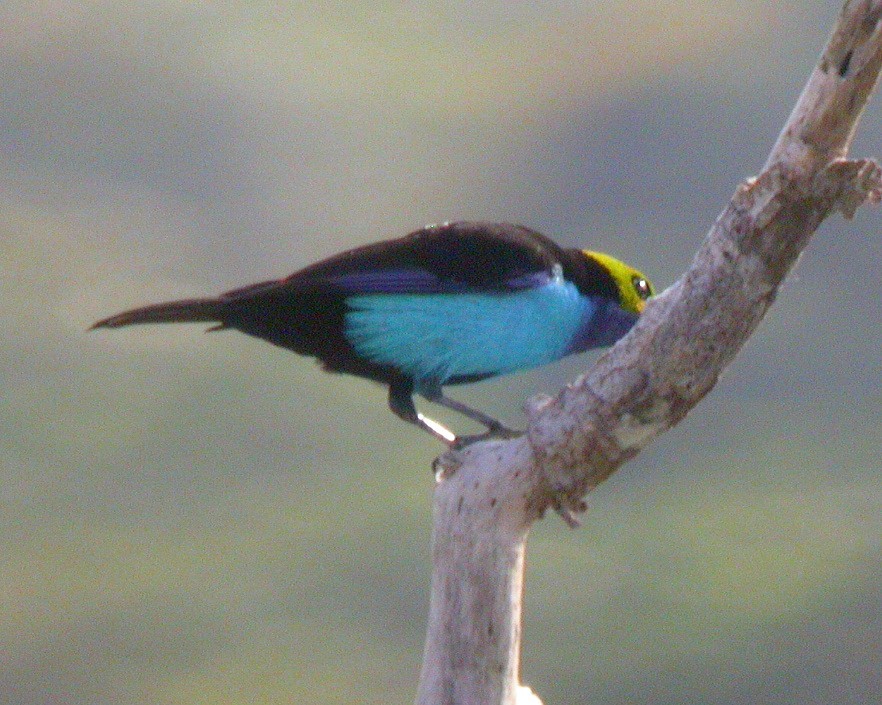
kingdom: Animalia
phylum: Chordata
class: Aves
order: Passeriformes
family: Thraupidae
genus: Tangara
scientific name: Tangara chilensis
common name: Paradise tanager
